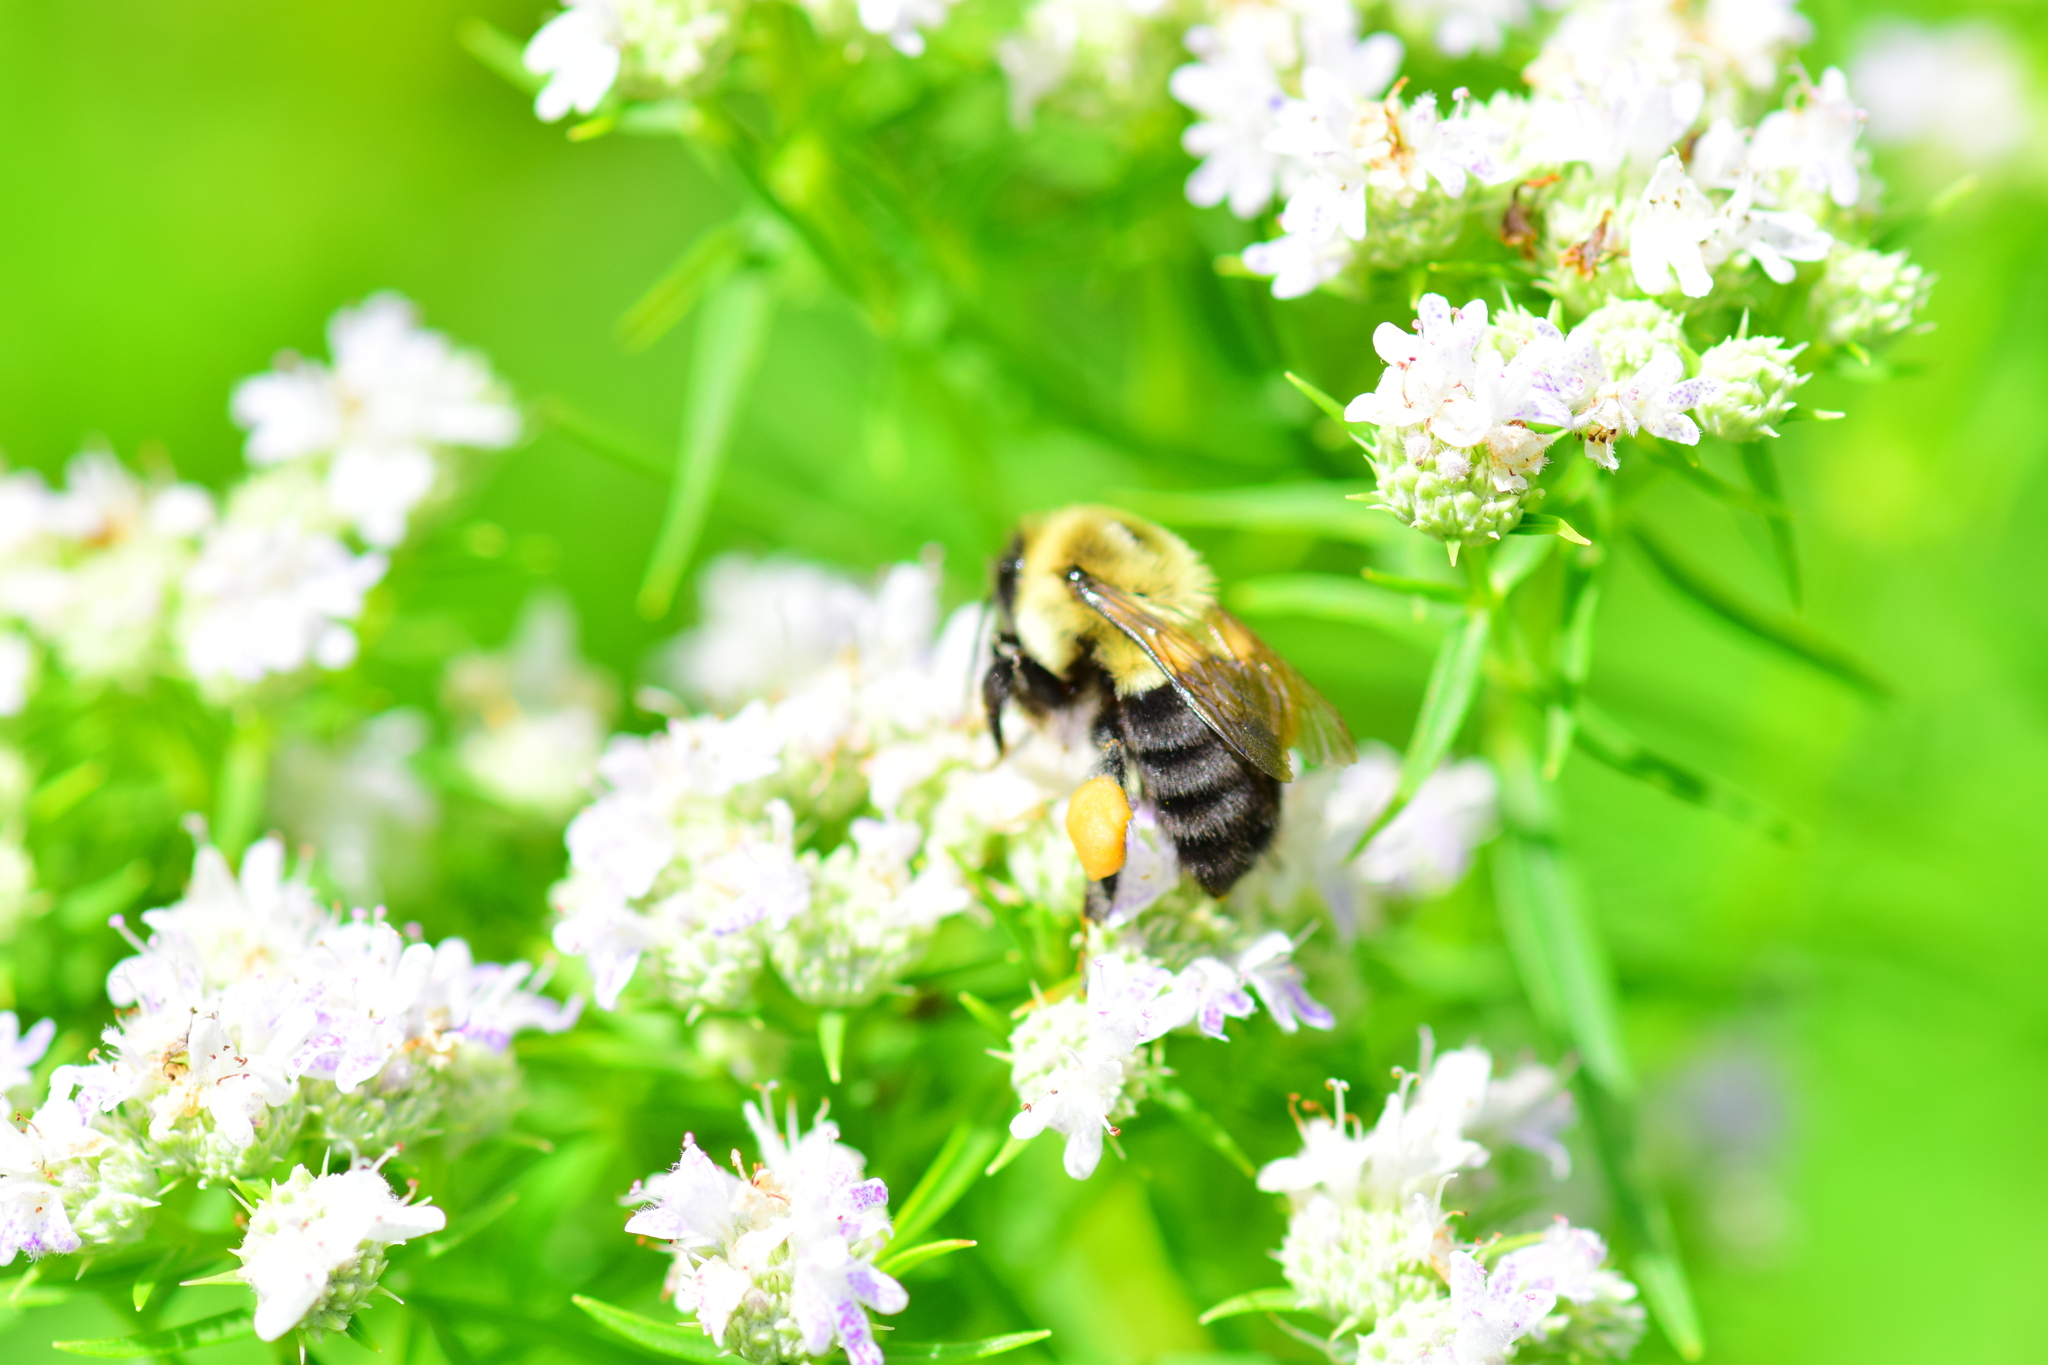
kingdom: Animalia
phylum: Arthropoda
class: Insecta
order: Hymenoptera
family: Apidae
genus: Bombus
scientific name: Bombus impatiens
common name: Common eastern bumble bee
